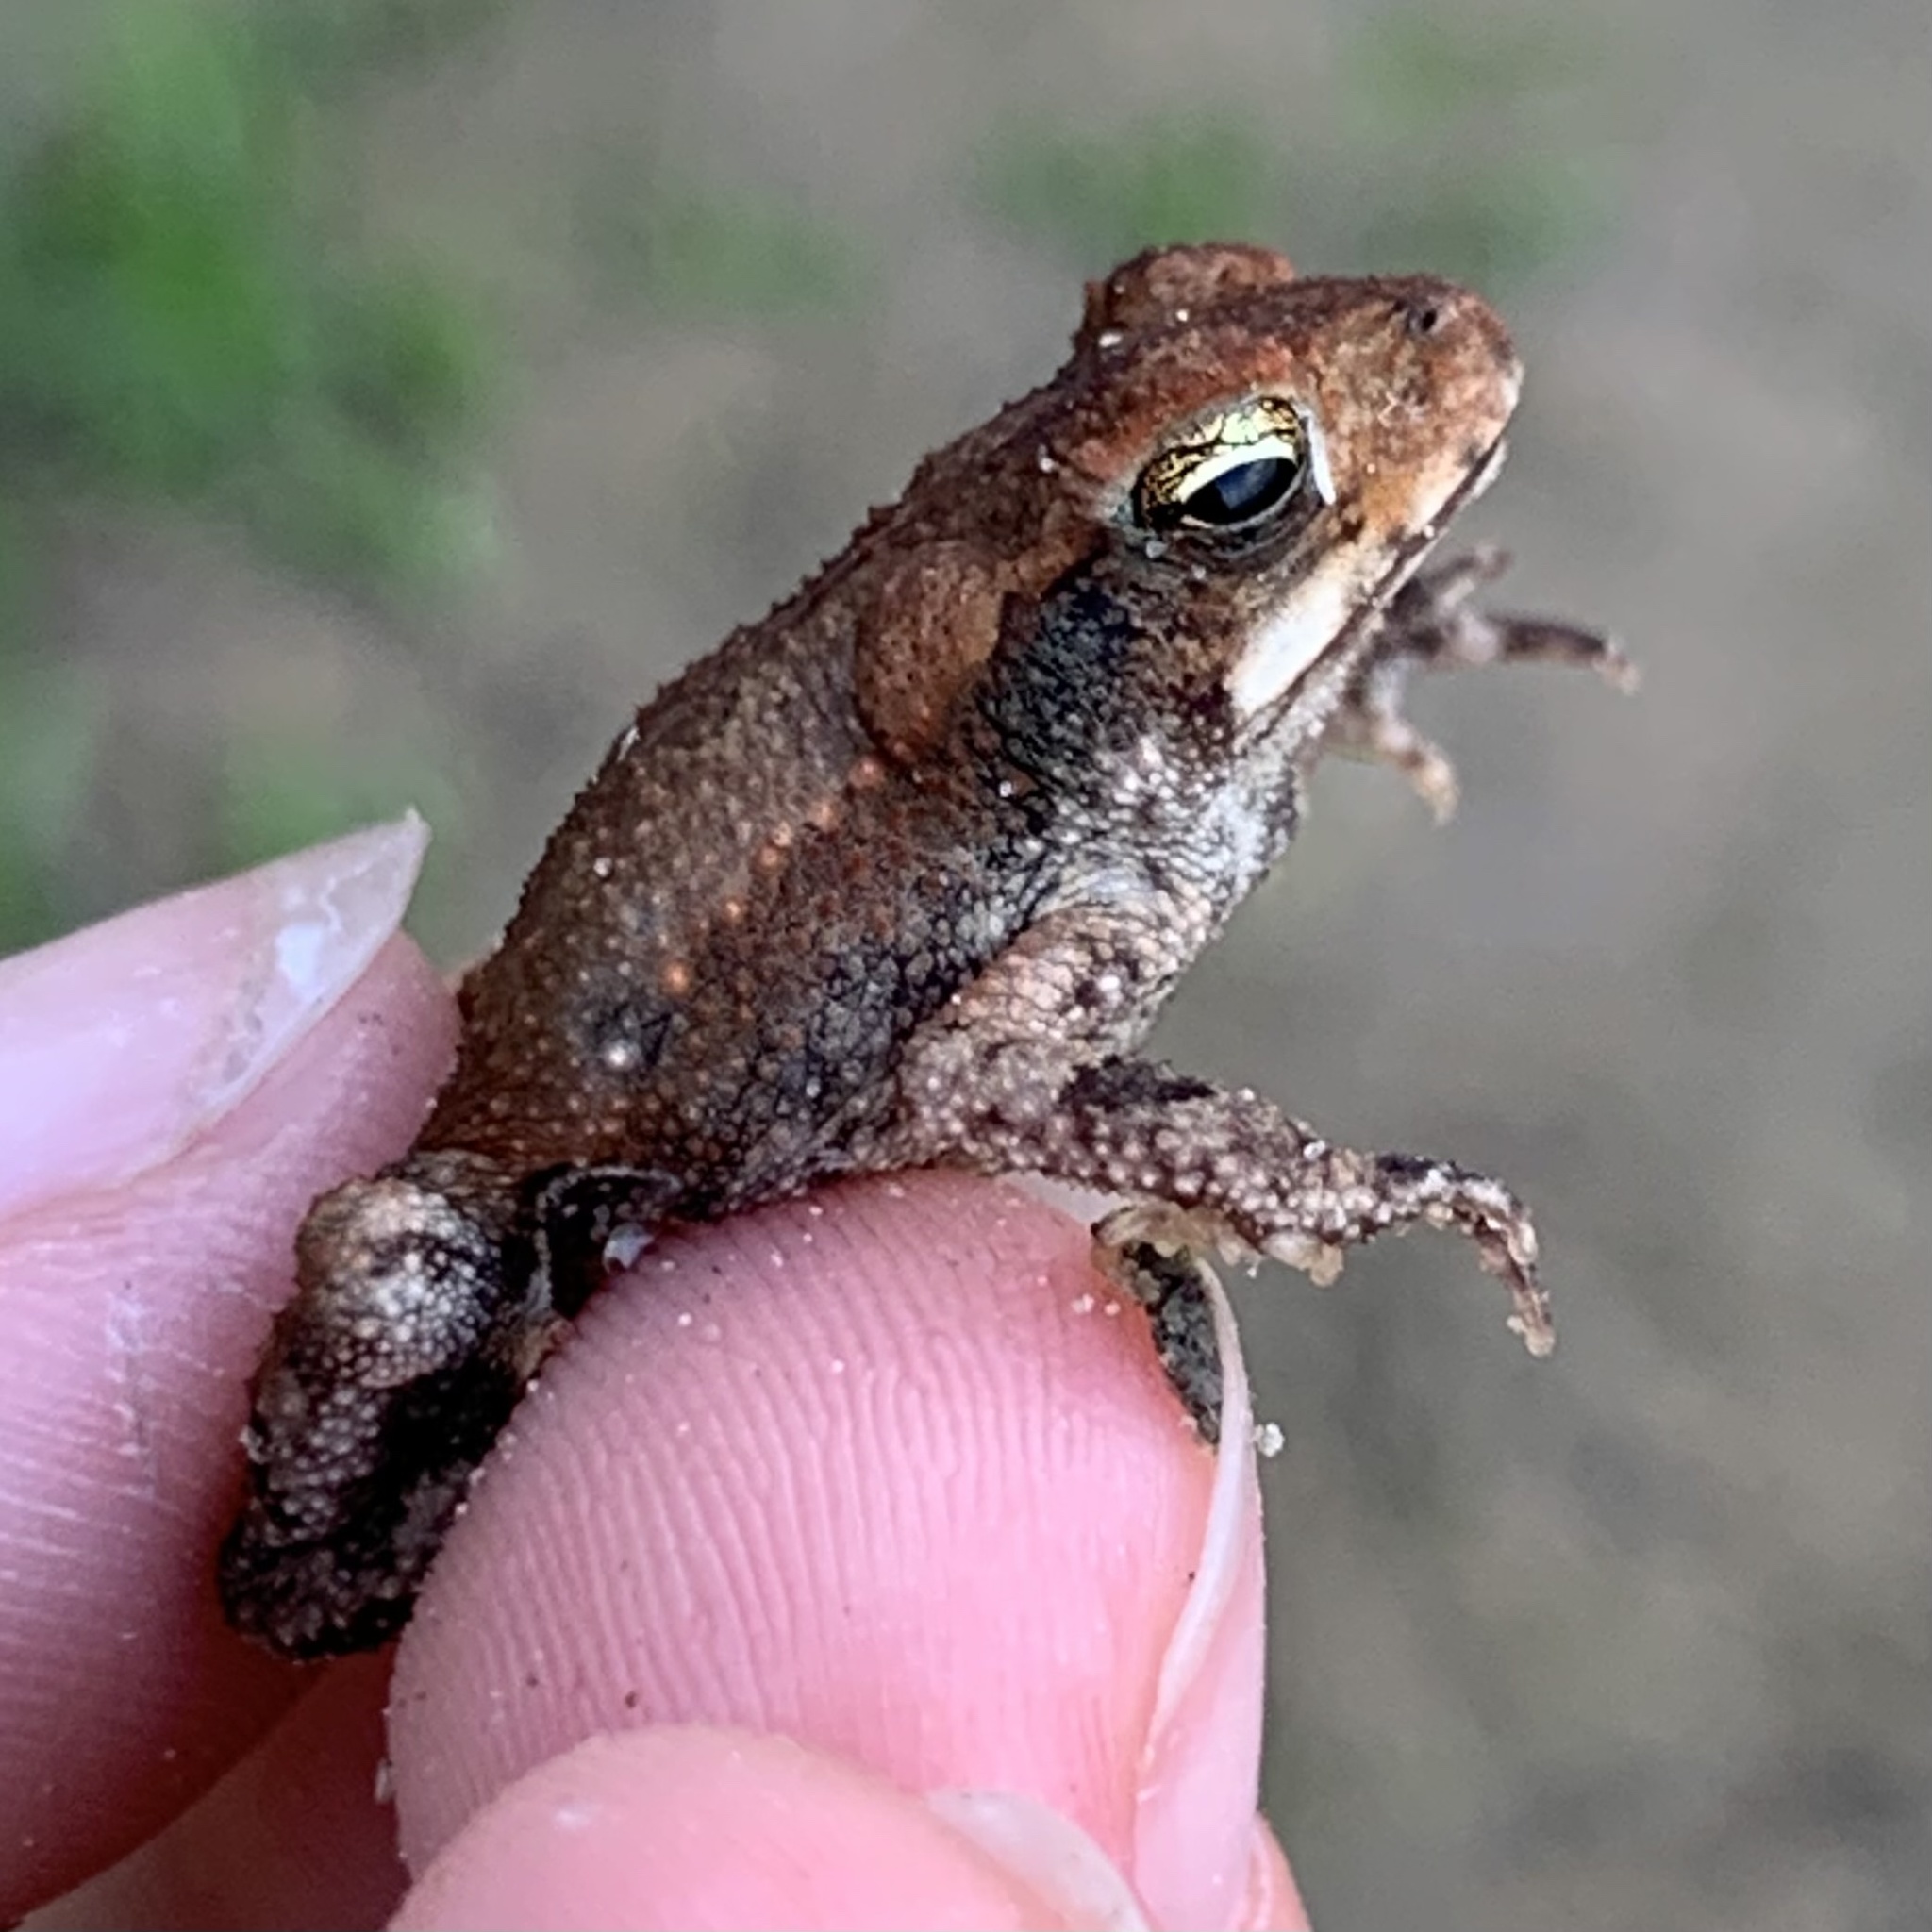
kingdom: Animalia
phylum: Chordata
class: Amphibia
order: Anura
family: Bufonidae
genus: Incilius
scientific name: Incilius nebulifer
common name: Gulf coast toad
